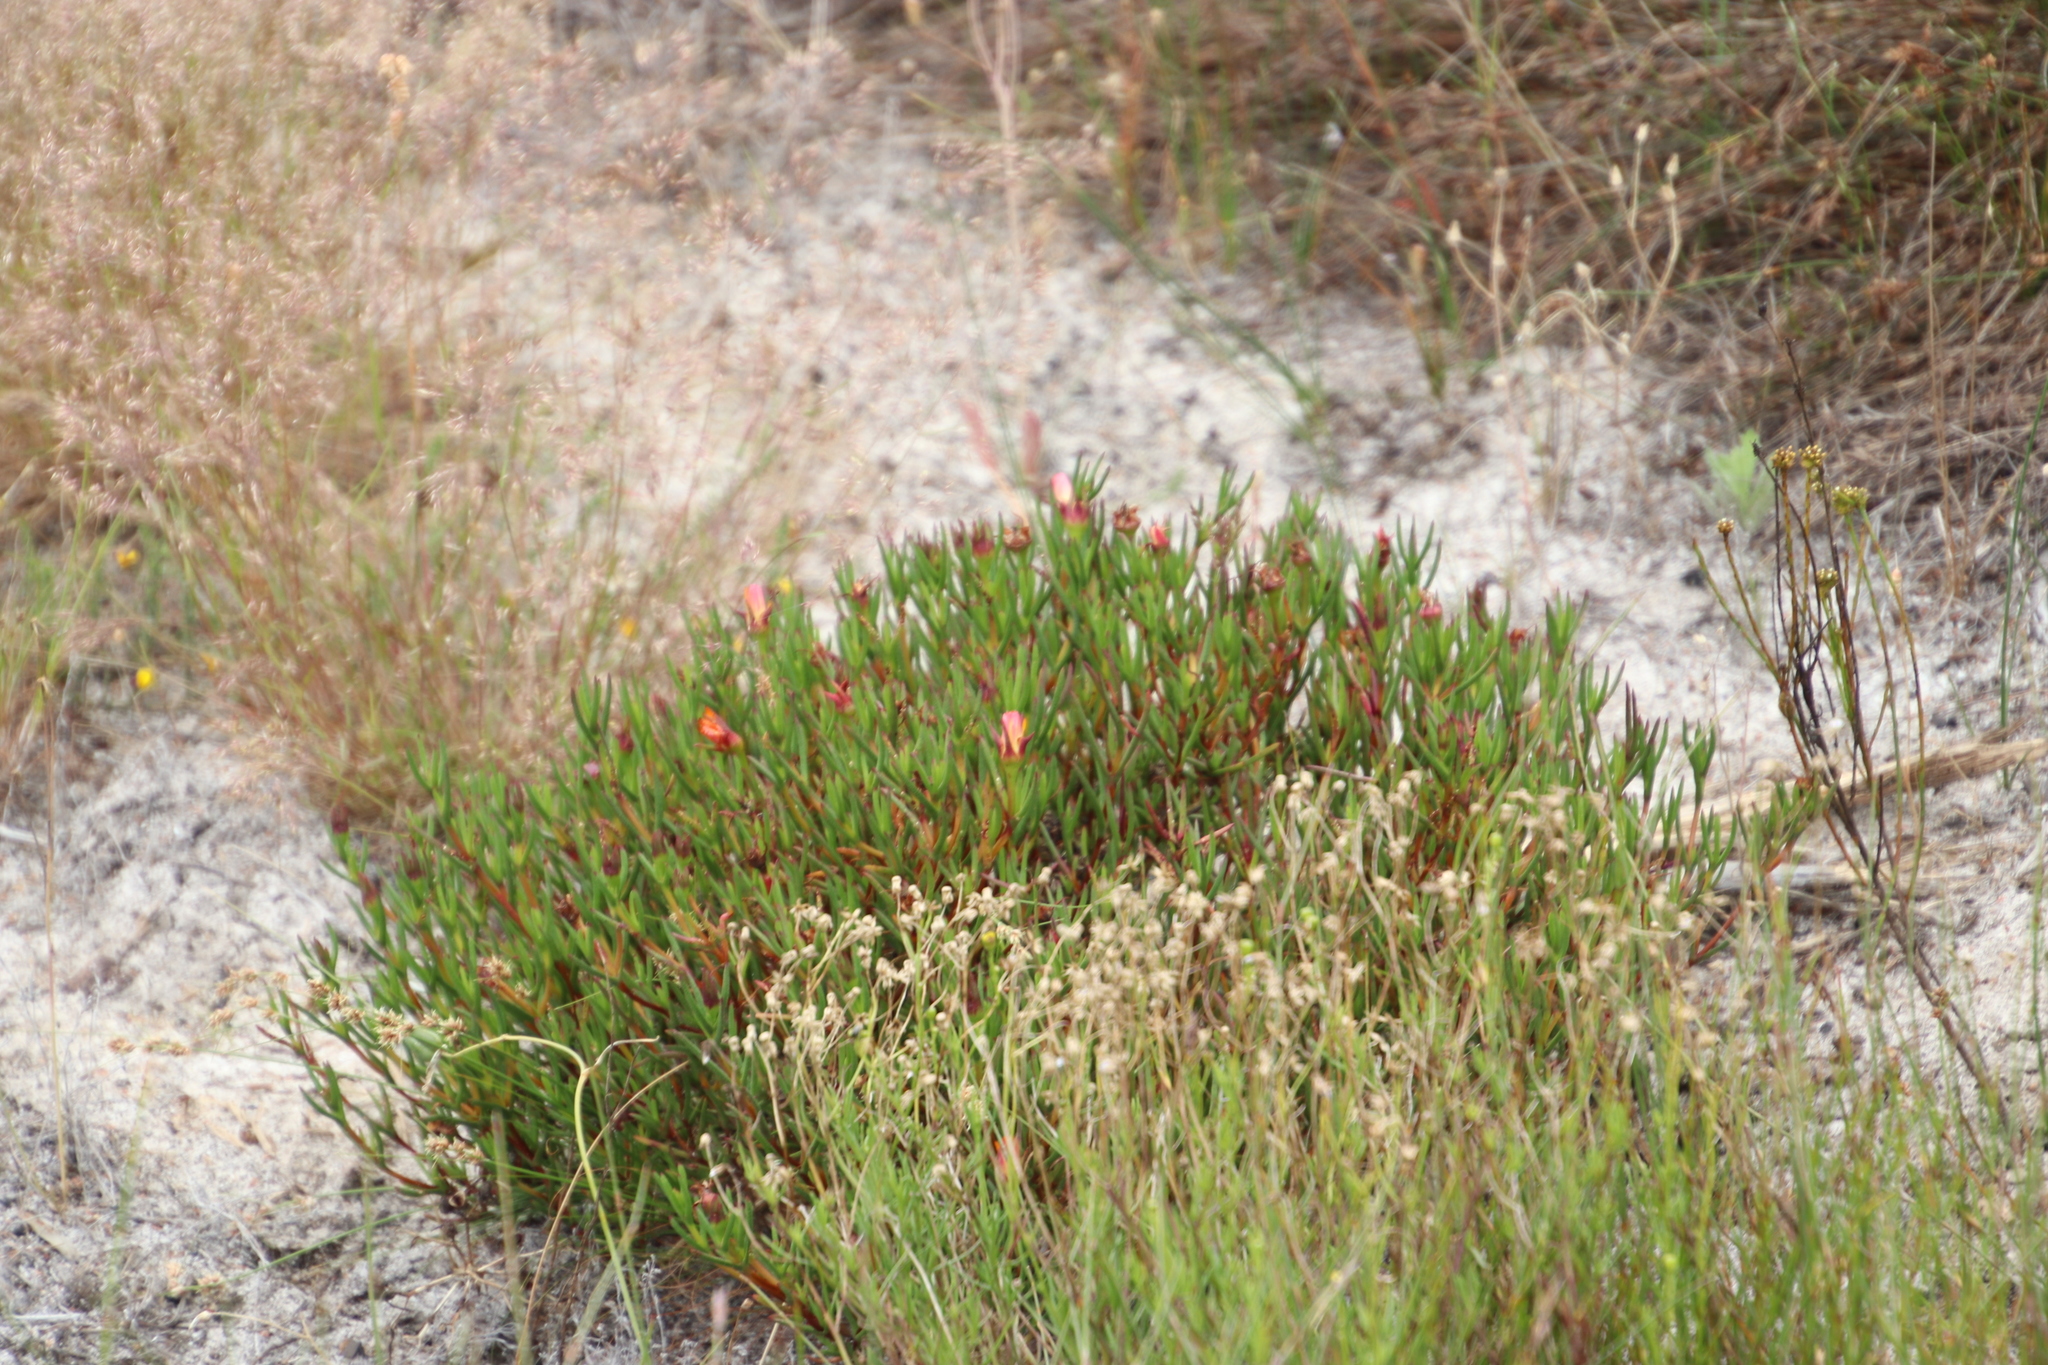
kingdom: Plantae
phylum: Tracheophyta
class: Magnoliopsida
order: Caryophyllales
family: Aizoaceae
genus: Lampranthus
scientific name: Lampranthus bicolor
